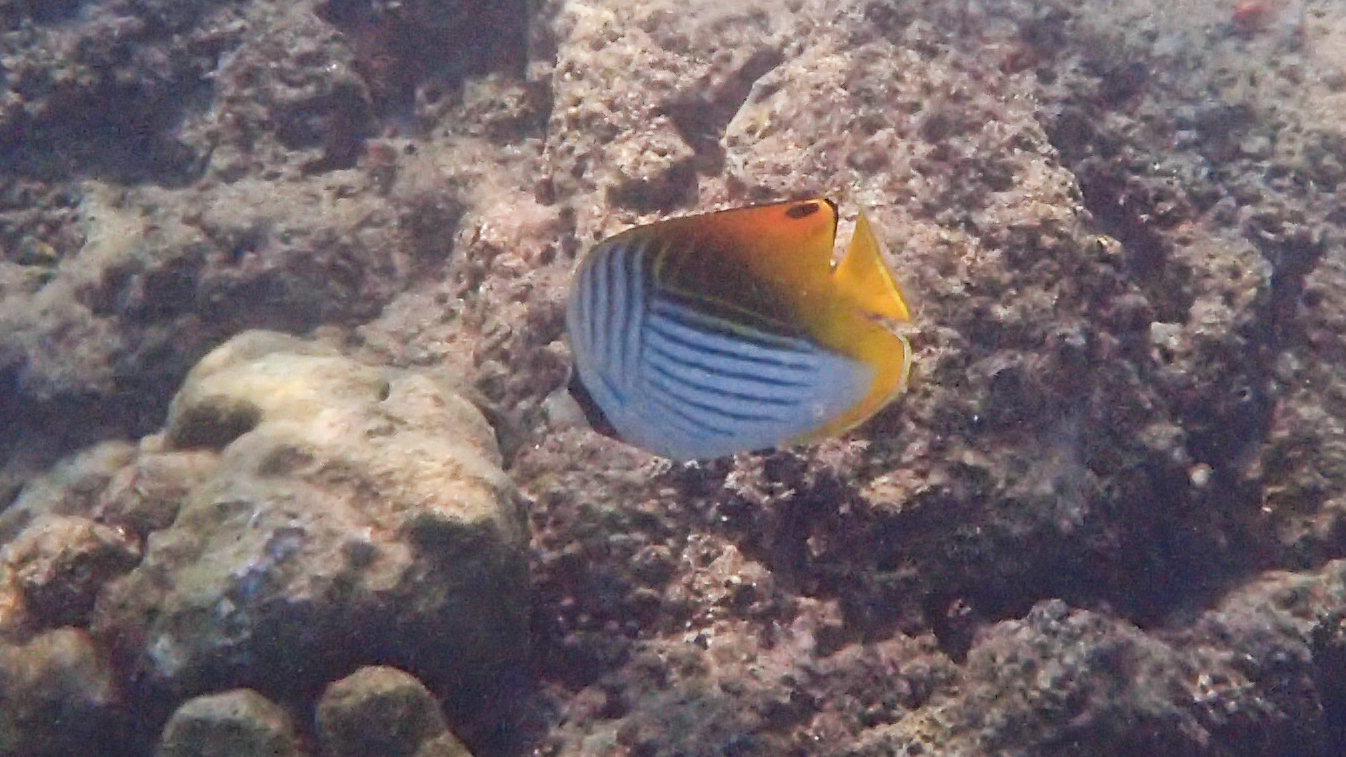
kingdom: Animalia
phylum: Chordata
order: Perciformes
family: Chaetodontidae
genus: Chaetodon
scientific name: Chaetodon auriga
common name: Threadfin butterflyfish
